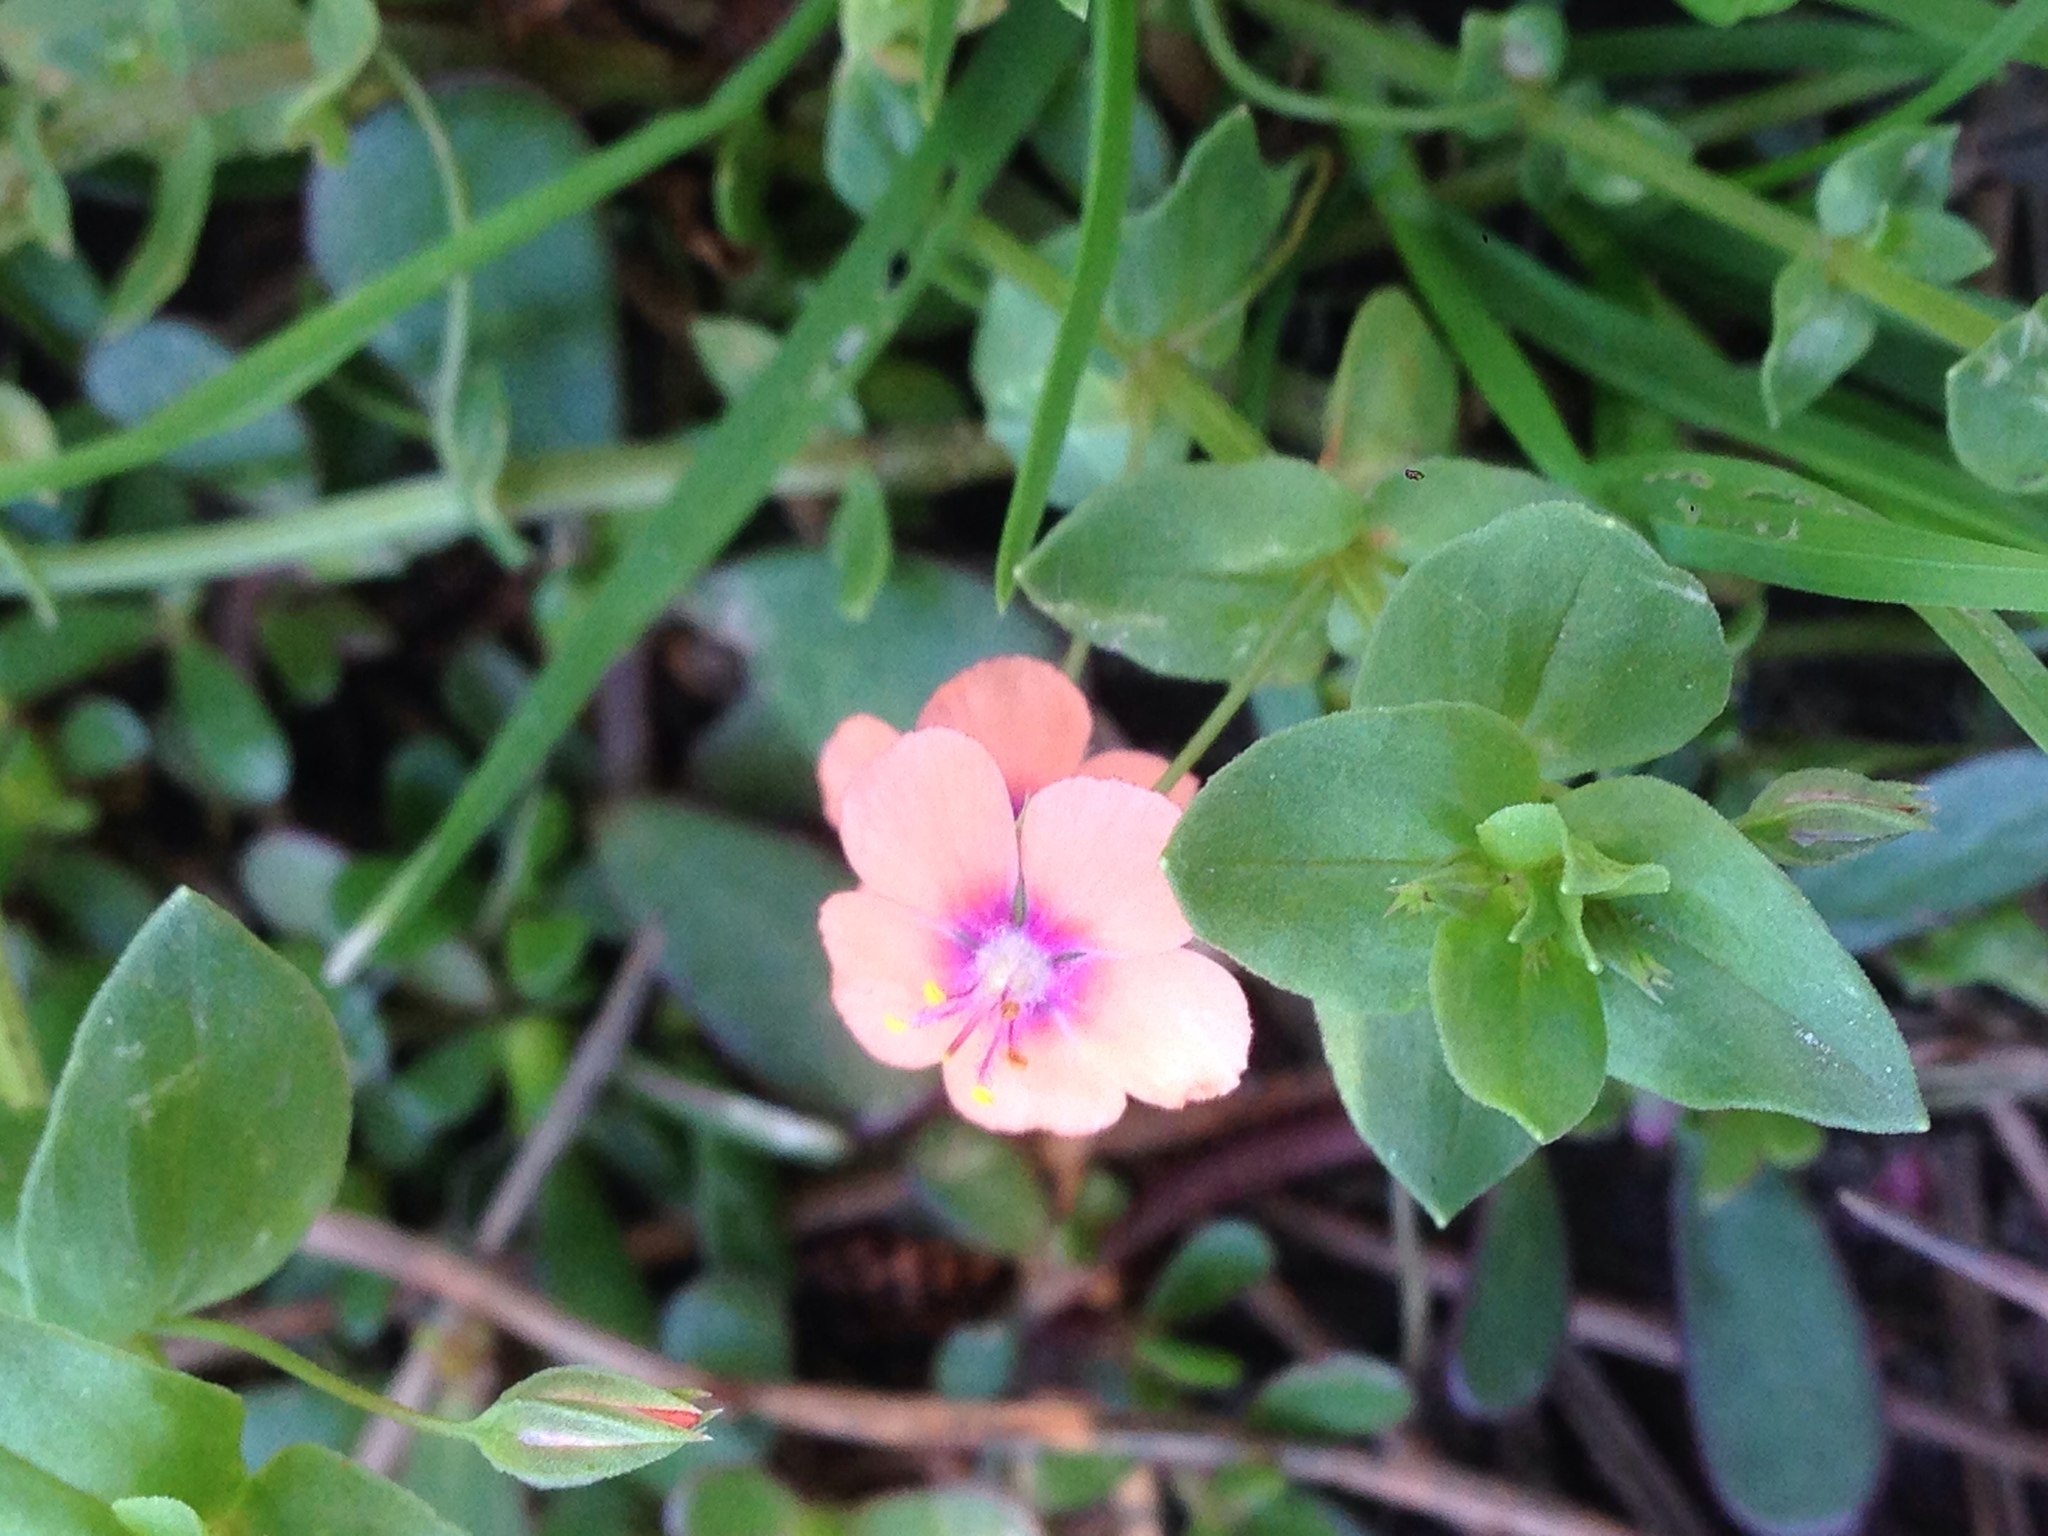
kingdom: Plantae
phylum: Tracheophyta
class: Magnoliopsida
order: Ericales
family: Primulaceae
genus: Lysimachia
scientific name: Lysimachia arvensis
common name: Scarlet pimpernel
